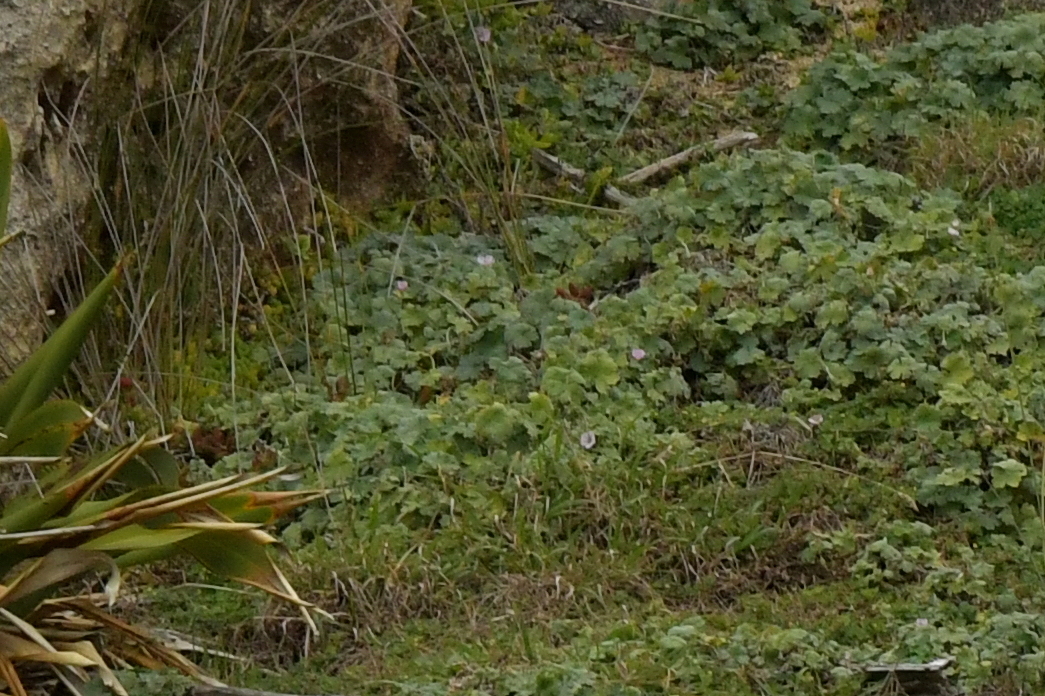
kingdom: Plantae
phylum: Tracheophyta
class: Magnoliopsida
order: Geraniales
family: Geraniaceae
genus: Geranium
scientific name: Geranium traversii
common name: Cranesbill
